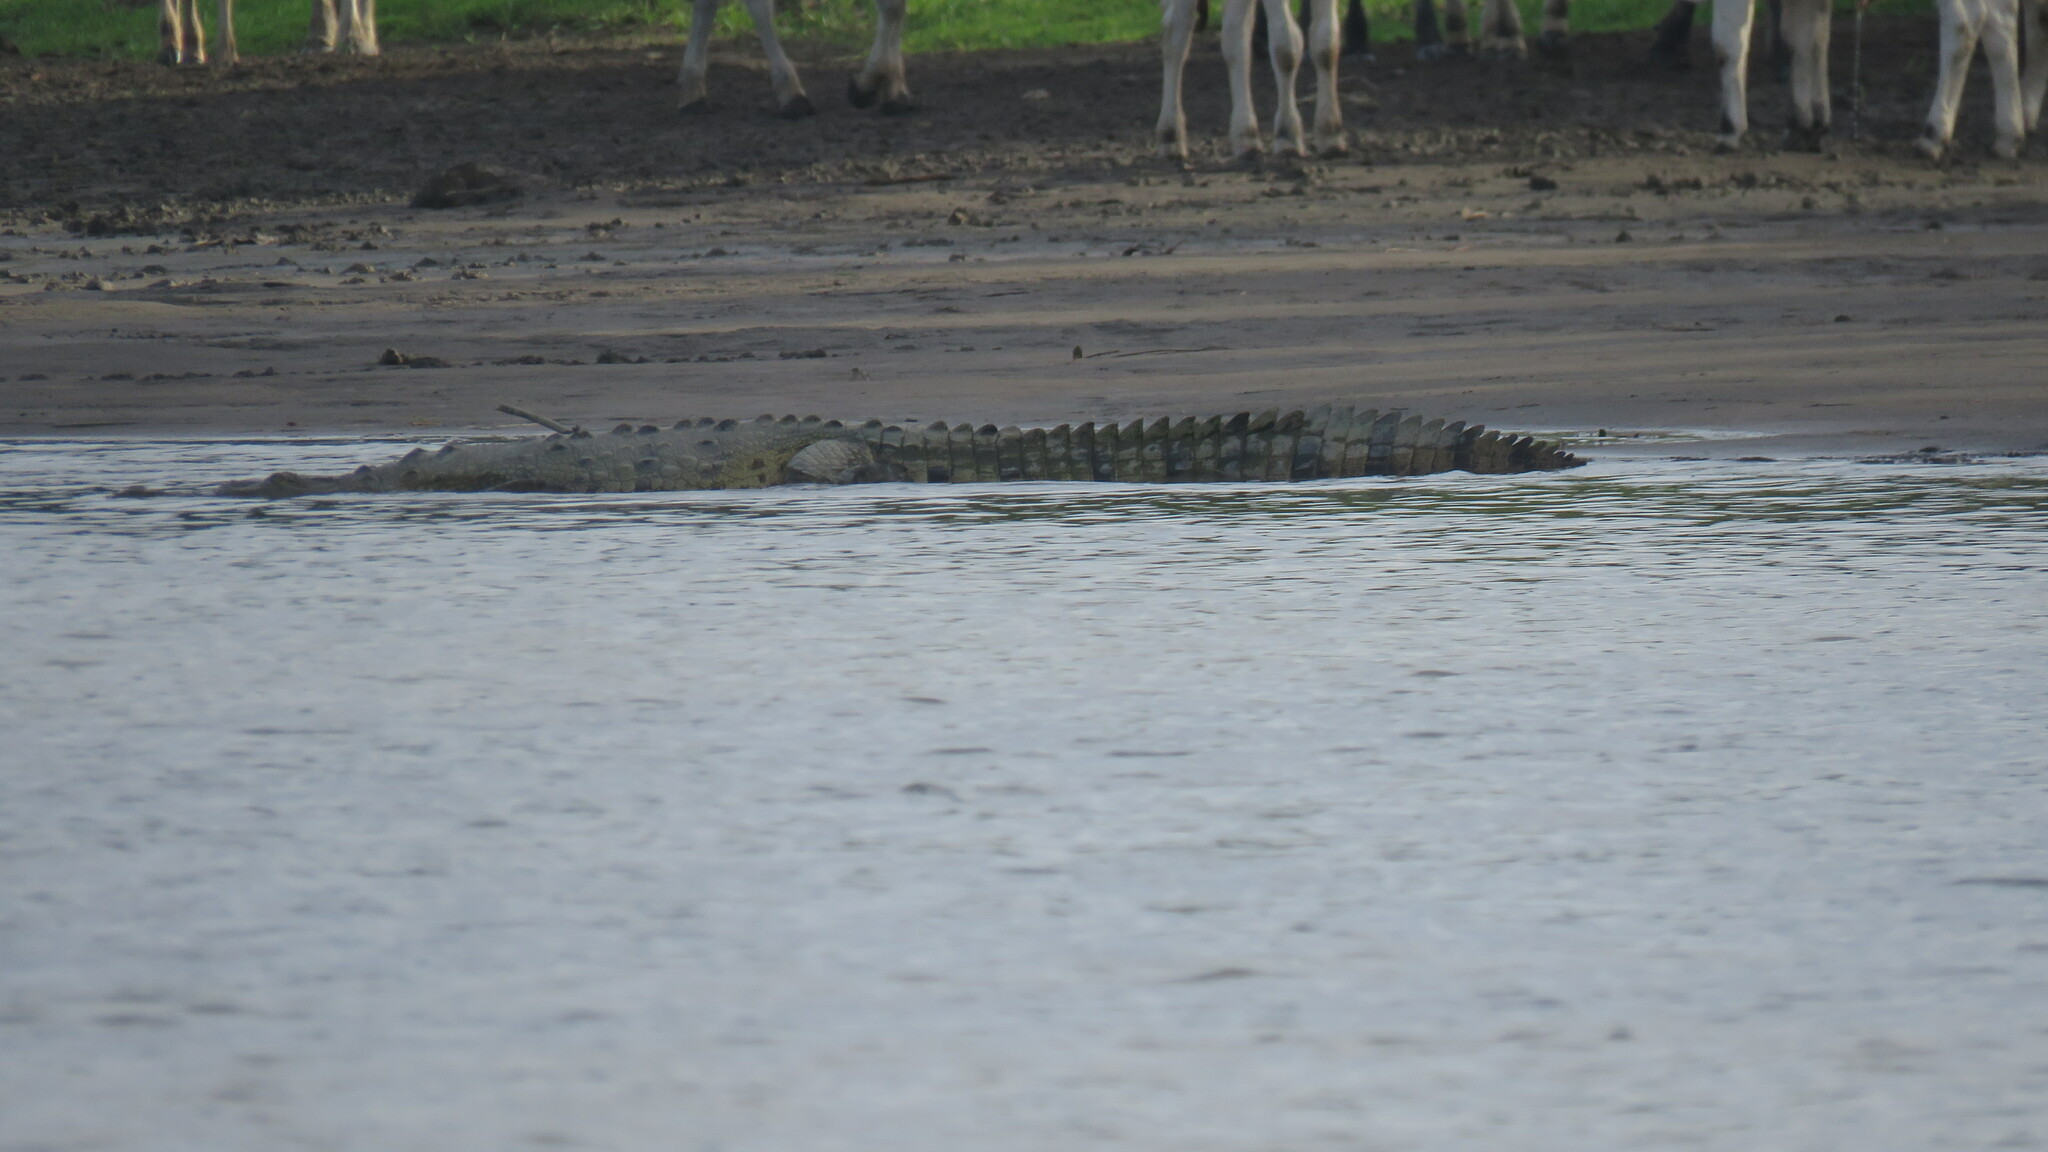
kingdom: Animalia
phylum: Chordata
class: Crocodylia
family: Crocodylidae
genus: Crocodylus
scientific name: Crocodylus acutus
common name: American crocodile
